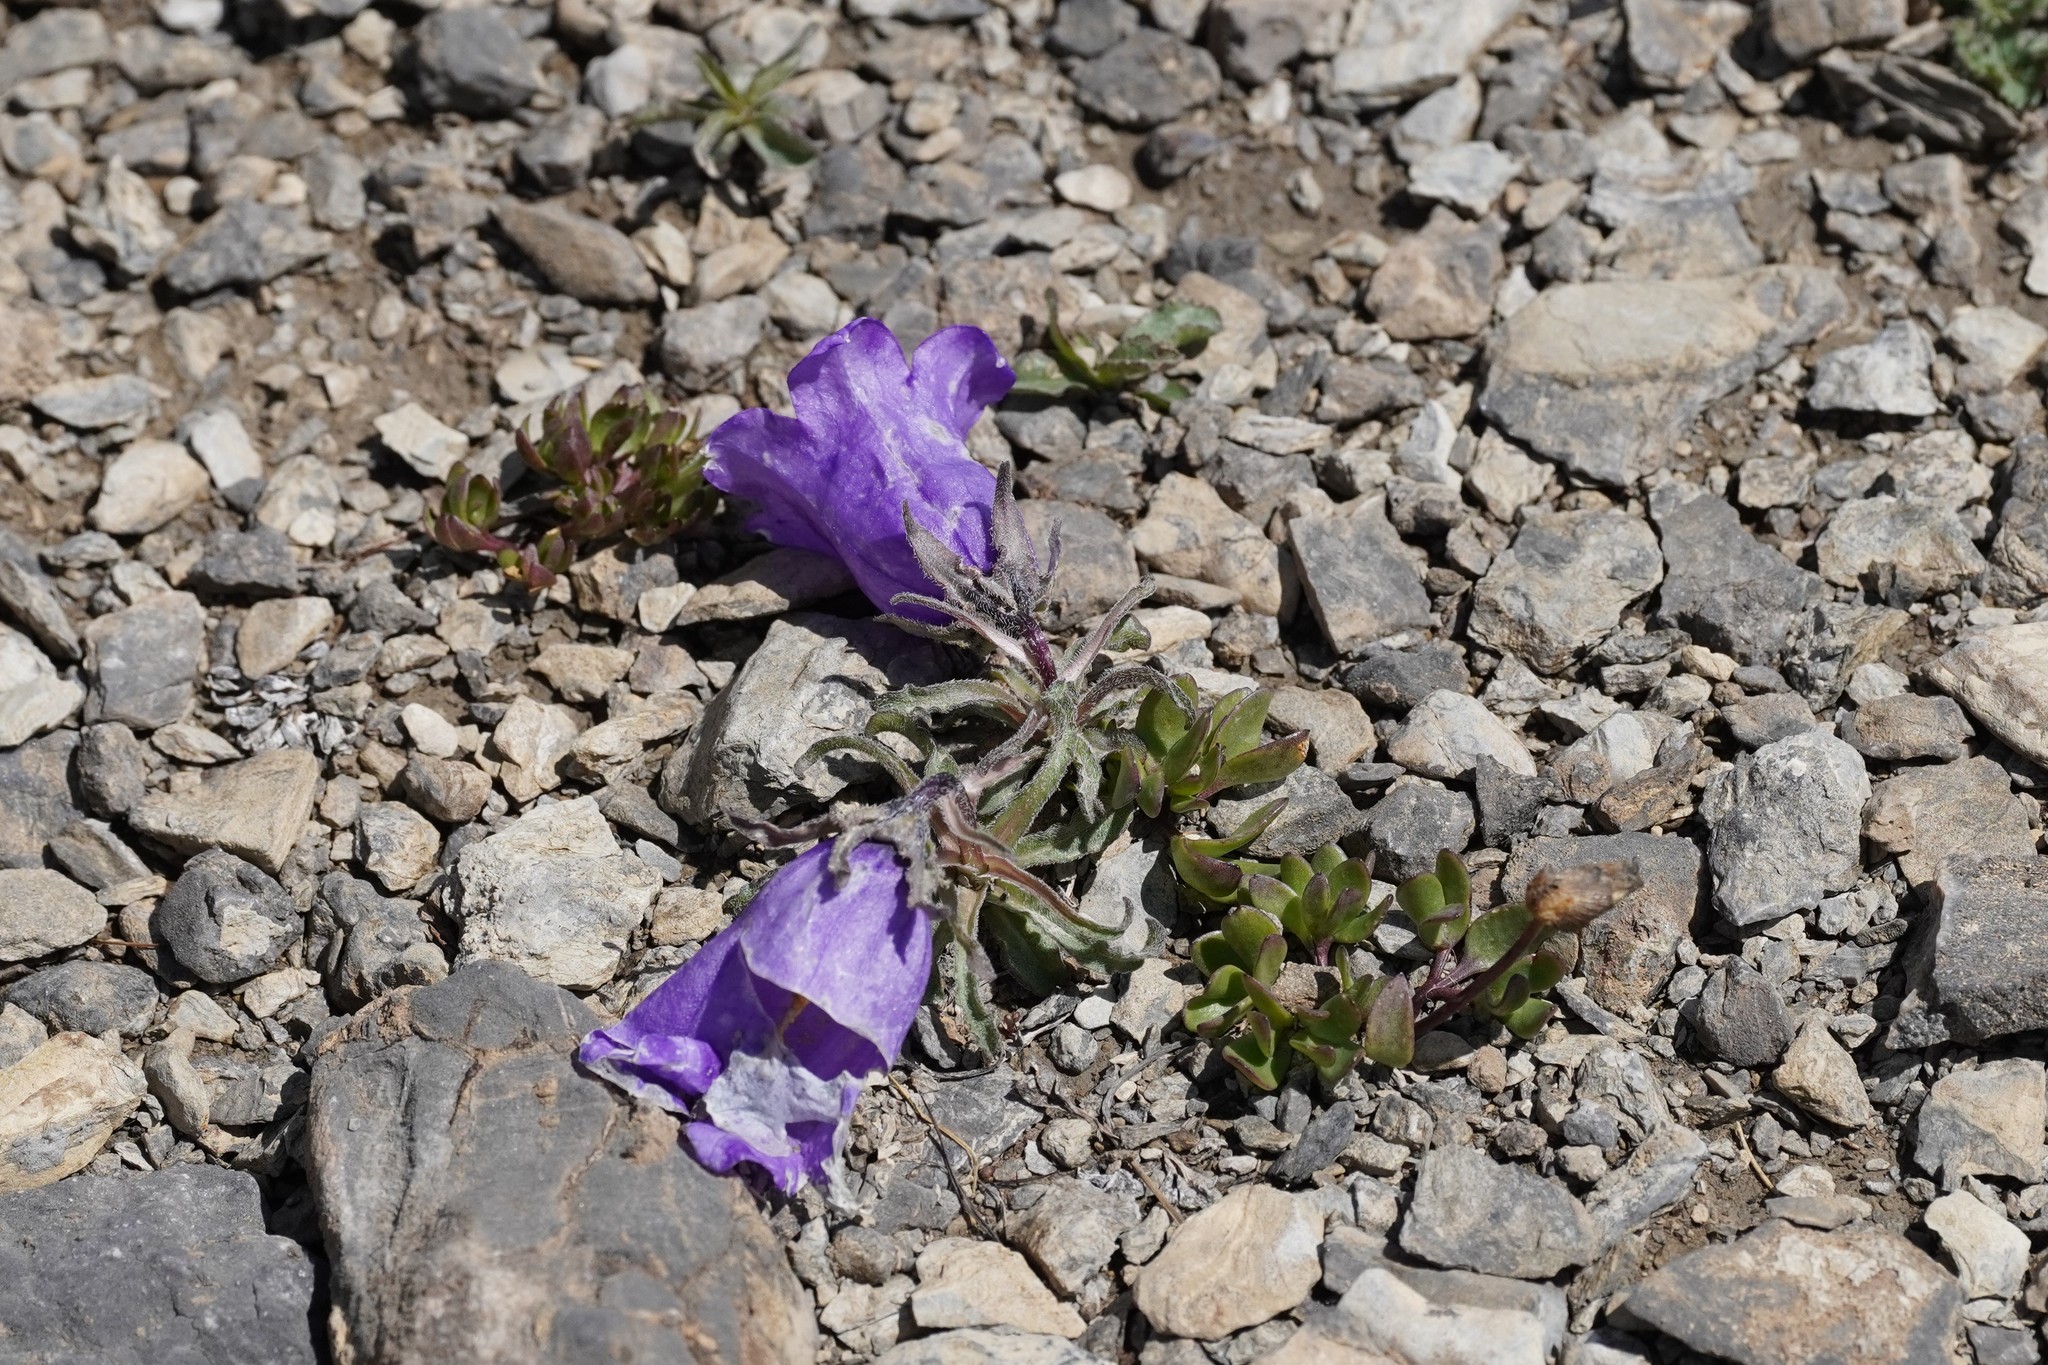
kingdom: Plantae
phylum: Tracheophyta
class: Magnoliopsida
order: Asterales
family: Campanulaceae
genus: Campanula
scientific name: Campanula alpestris
